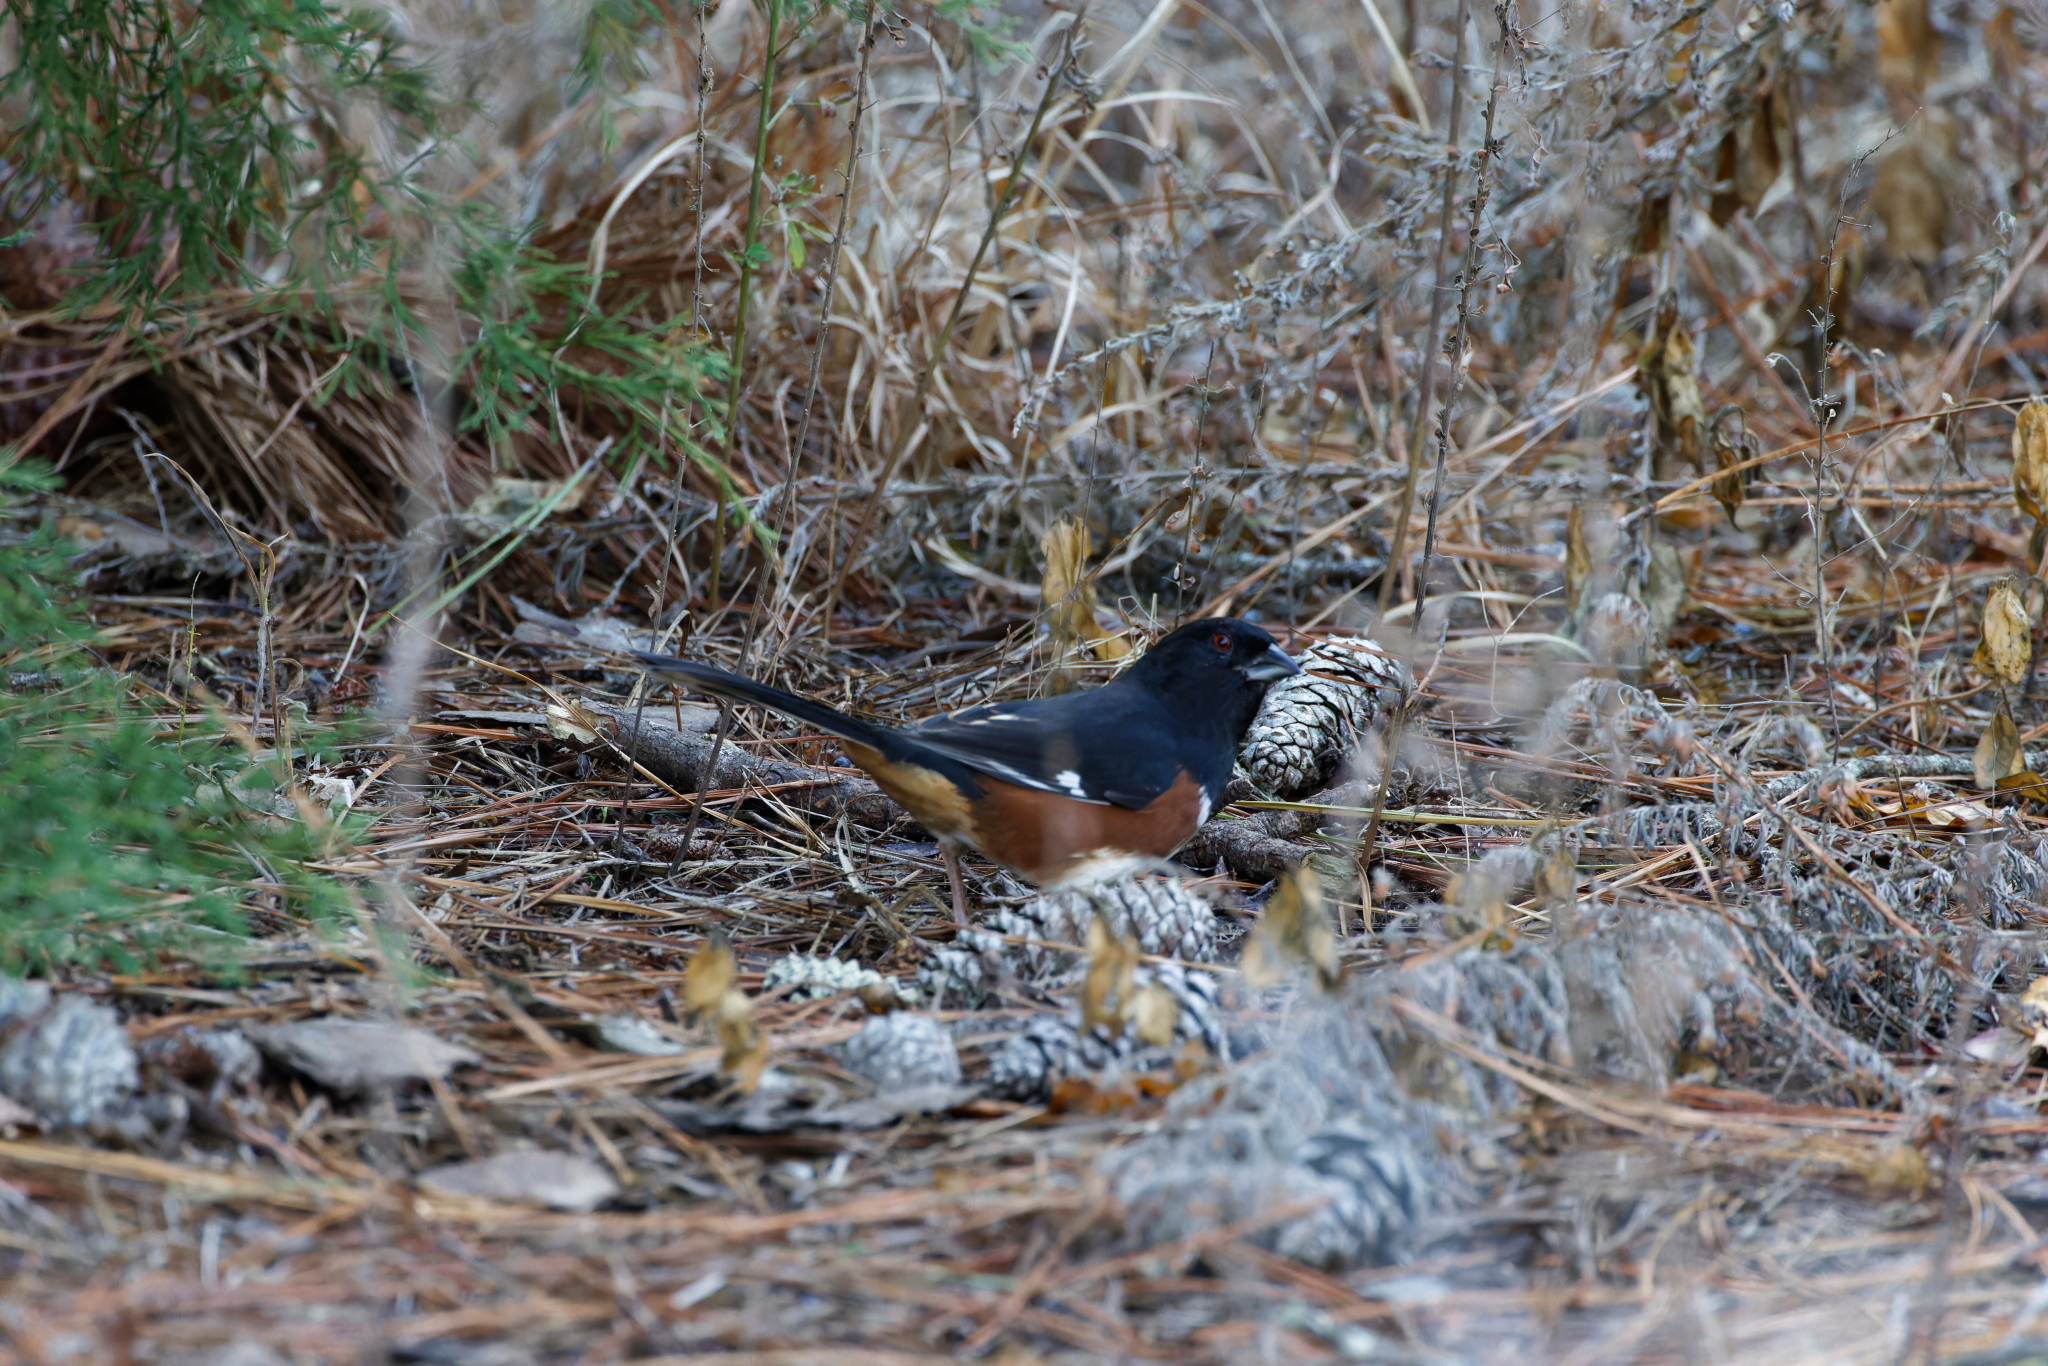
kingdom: Animalia
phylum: Chordata
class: Aves
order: Passeriformes
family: Passerellidae
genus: Pipilo
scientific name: Pipilo erythrophthalmus
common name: Eastern towhee
